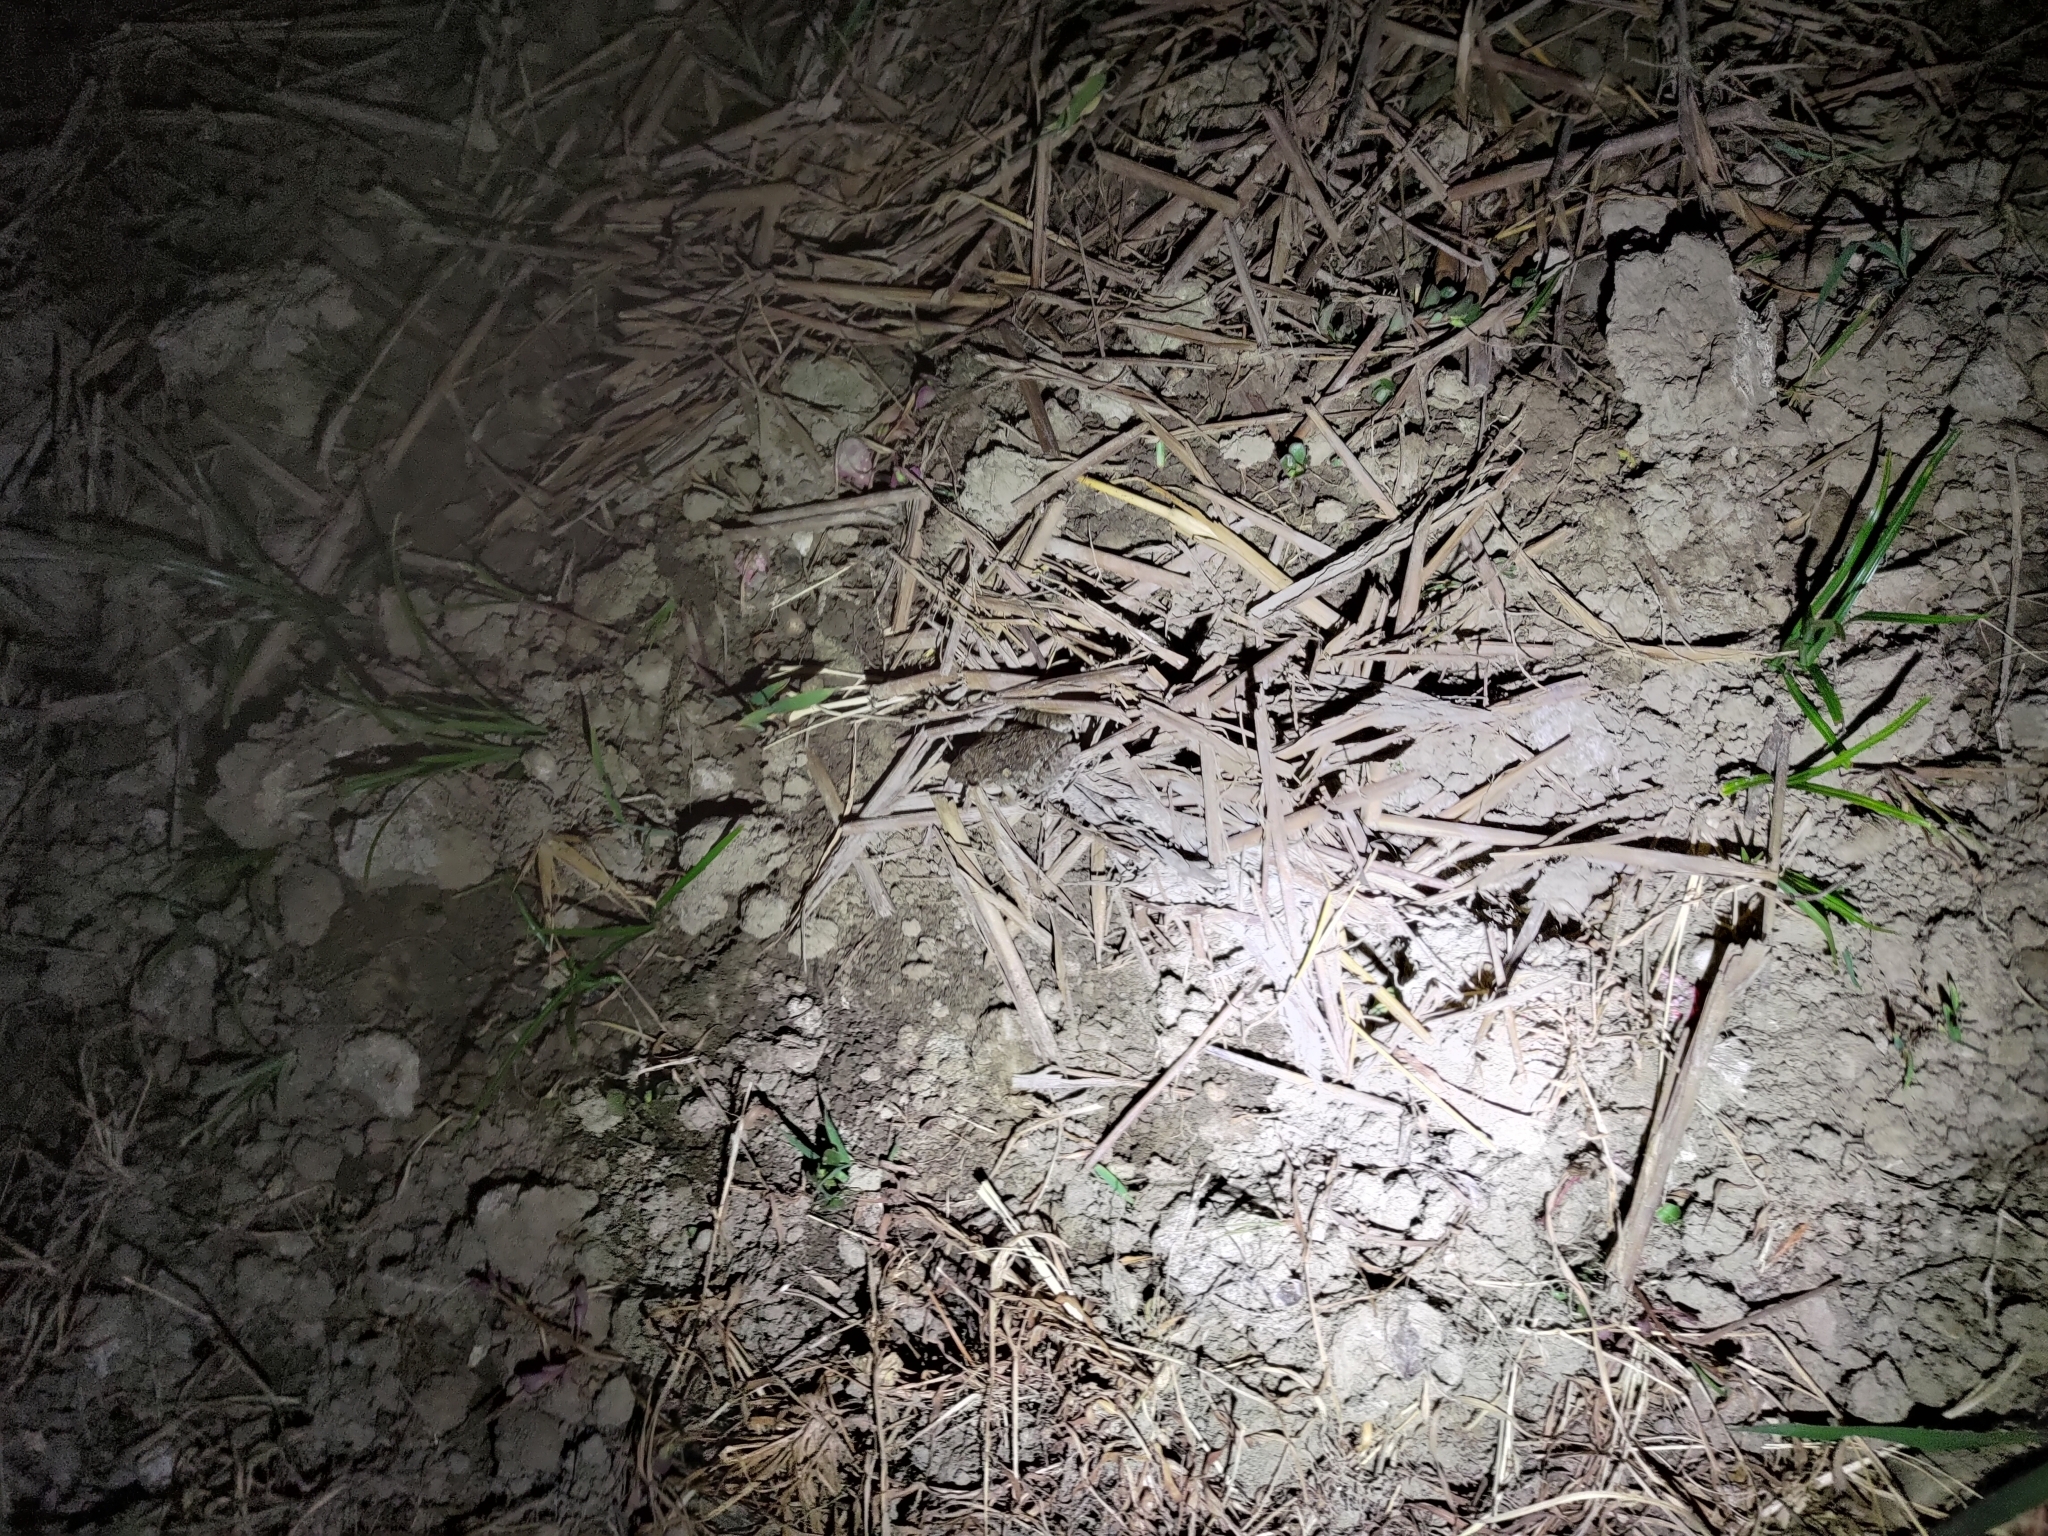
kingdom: Animalia
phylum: Chordata
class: Amphibia
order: Anura
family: Dicroglossidae
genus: Fejervarya
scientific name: Fejervarya limnocharis
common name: Asian grass frog/common pond frog/field frog/grass frog/indian rice frog
